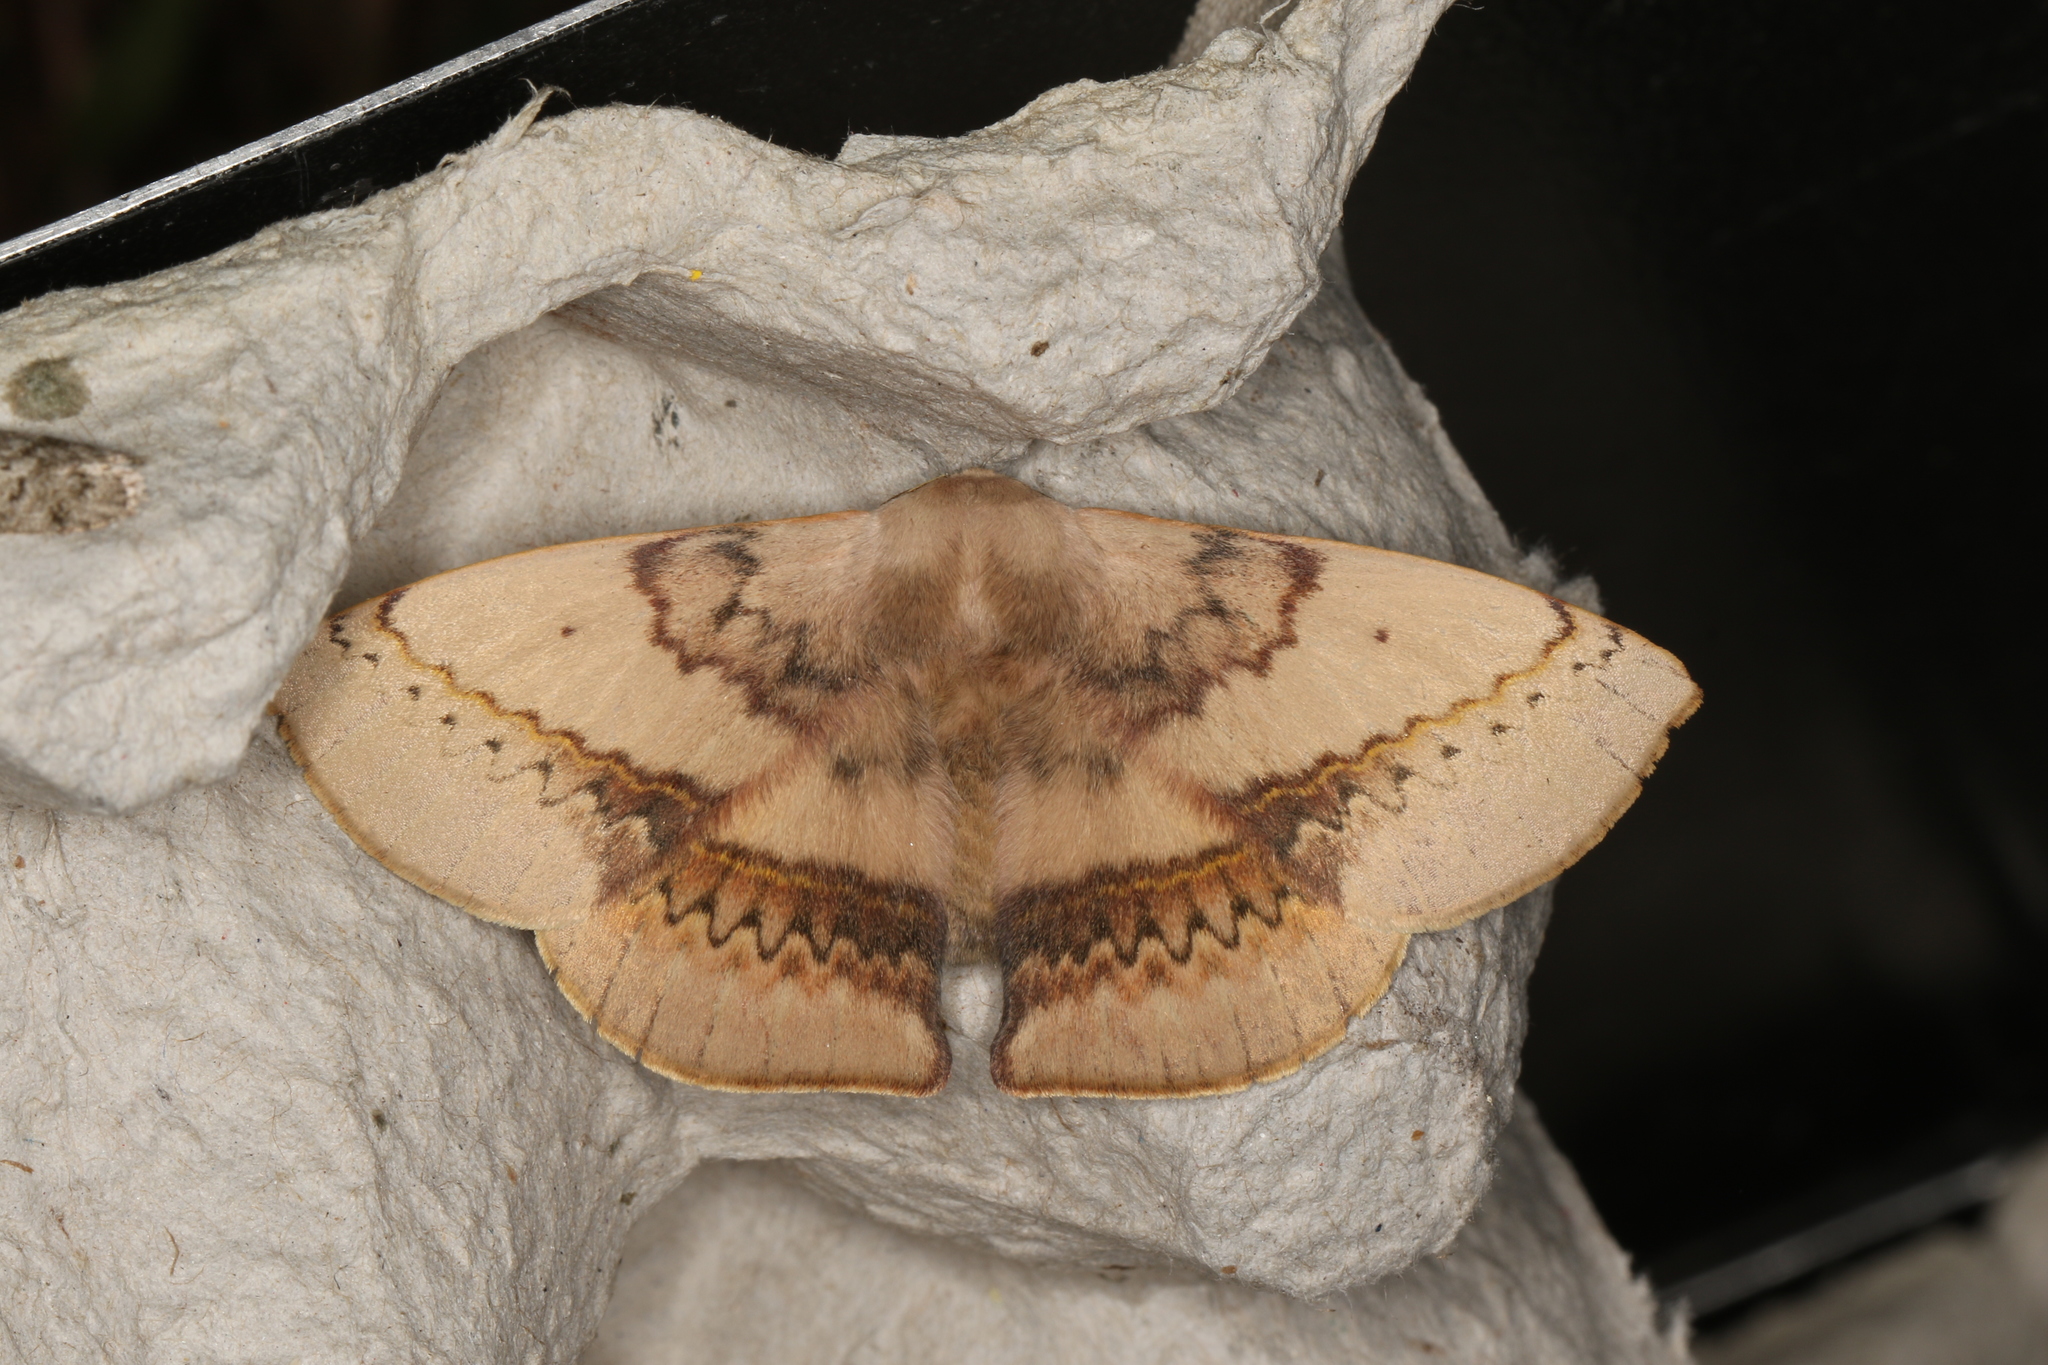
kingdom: Animalia
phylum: Arthropoda
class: Insecta
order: Lepidoptera
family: Anthelidae
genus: Anthela
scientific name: Anthela varia
